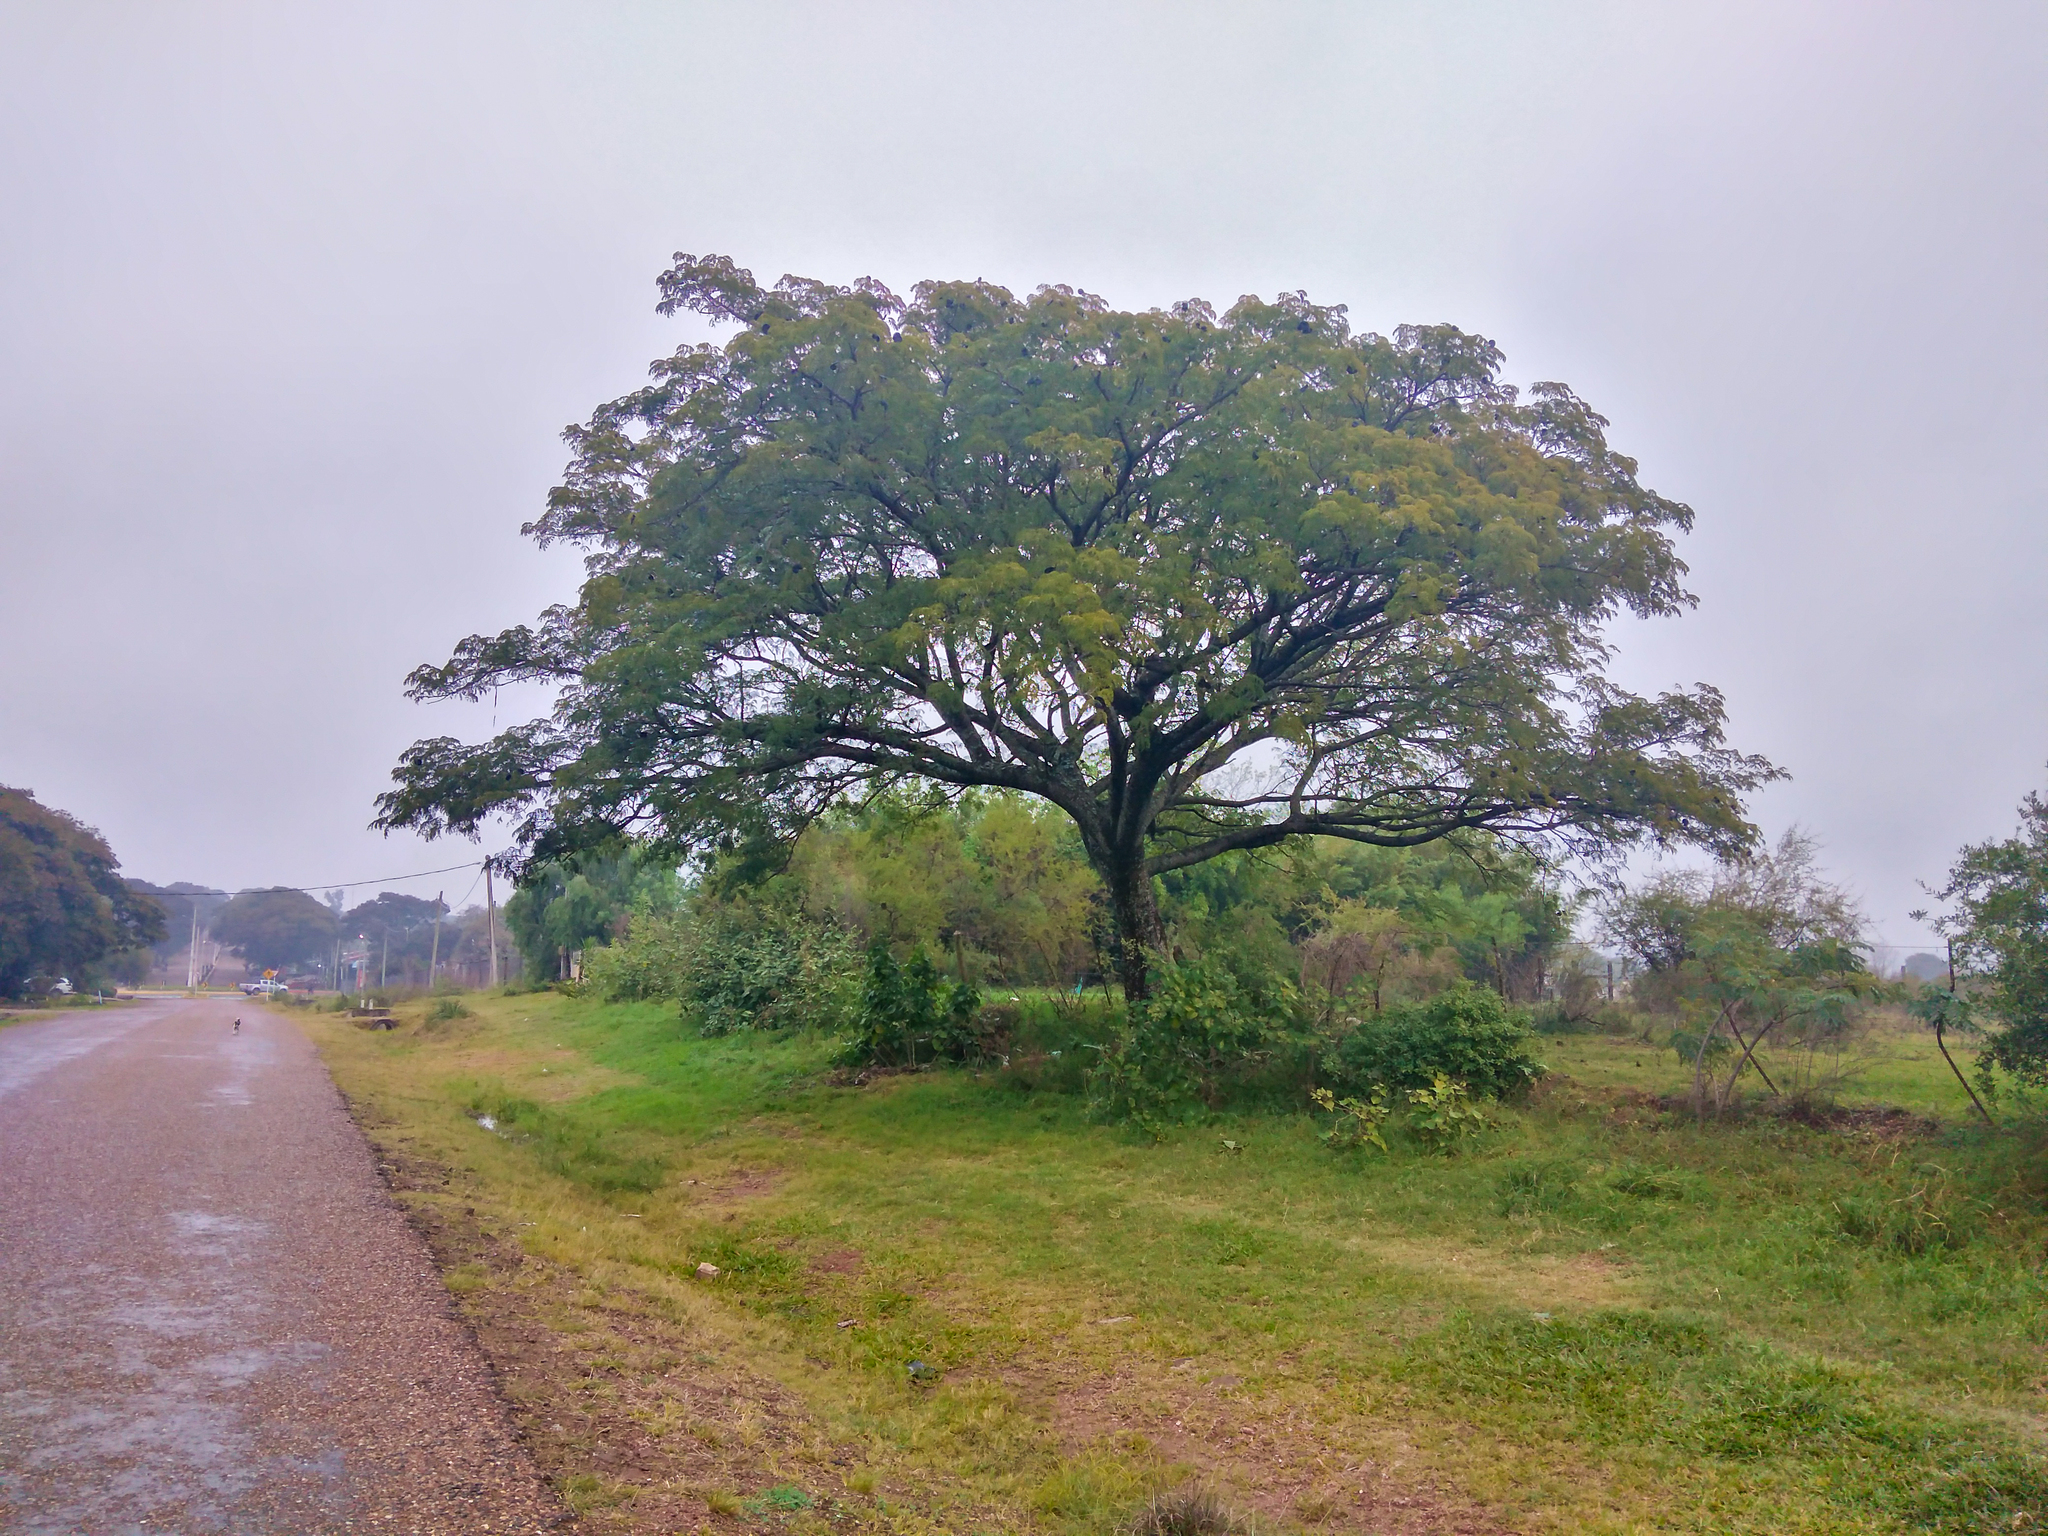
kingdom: Plantae
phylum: Tracheophyta
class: Magnoliopsida
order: Fabales
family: Fabaceae
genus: Enterolobium
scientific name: Enterolobium contortisiliquum
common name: Pacara earpod tree
